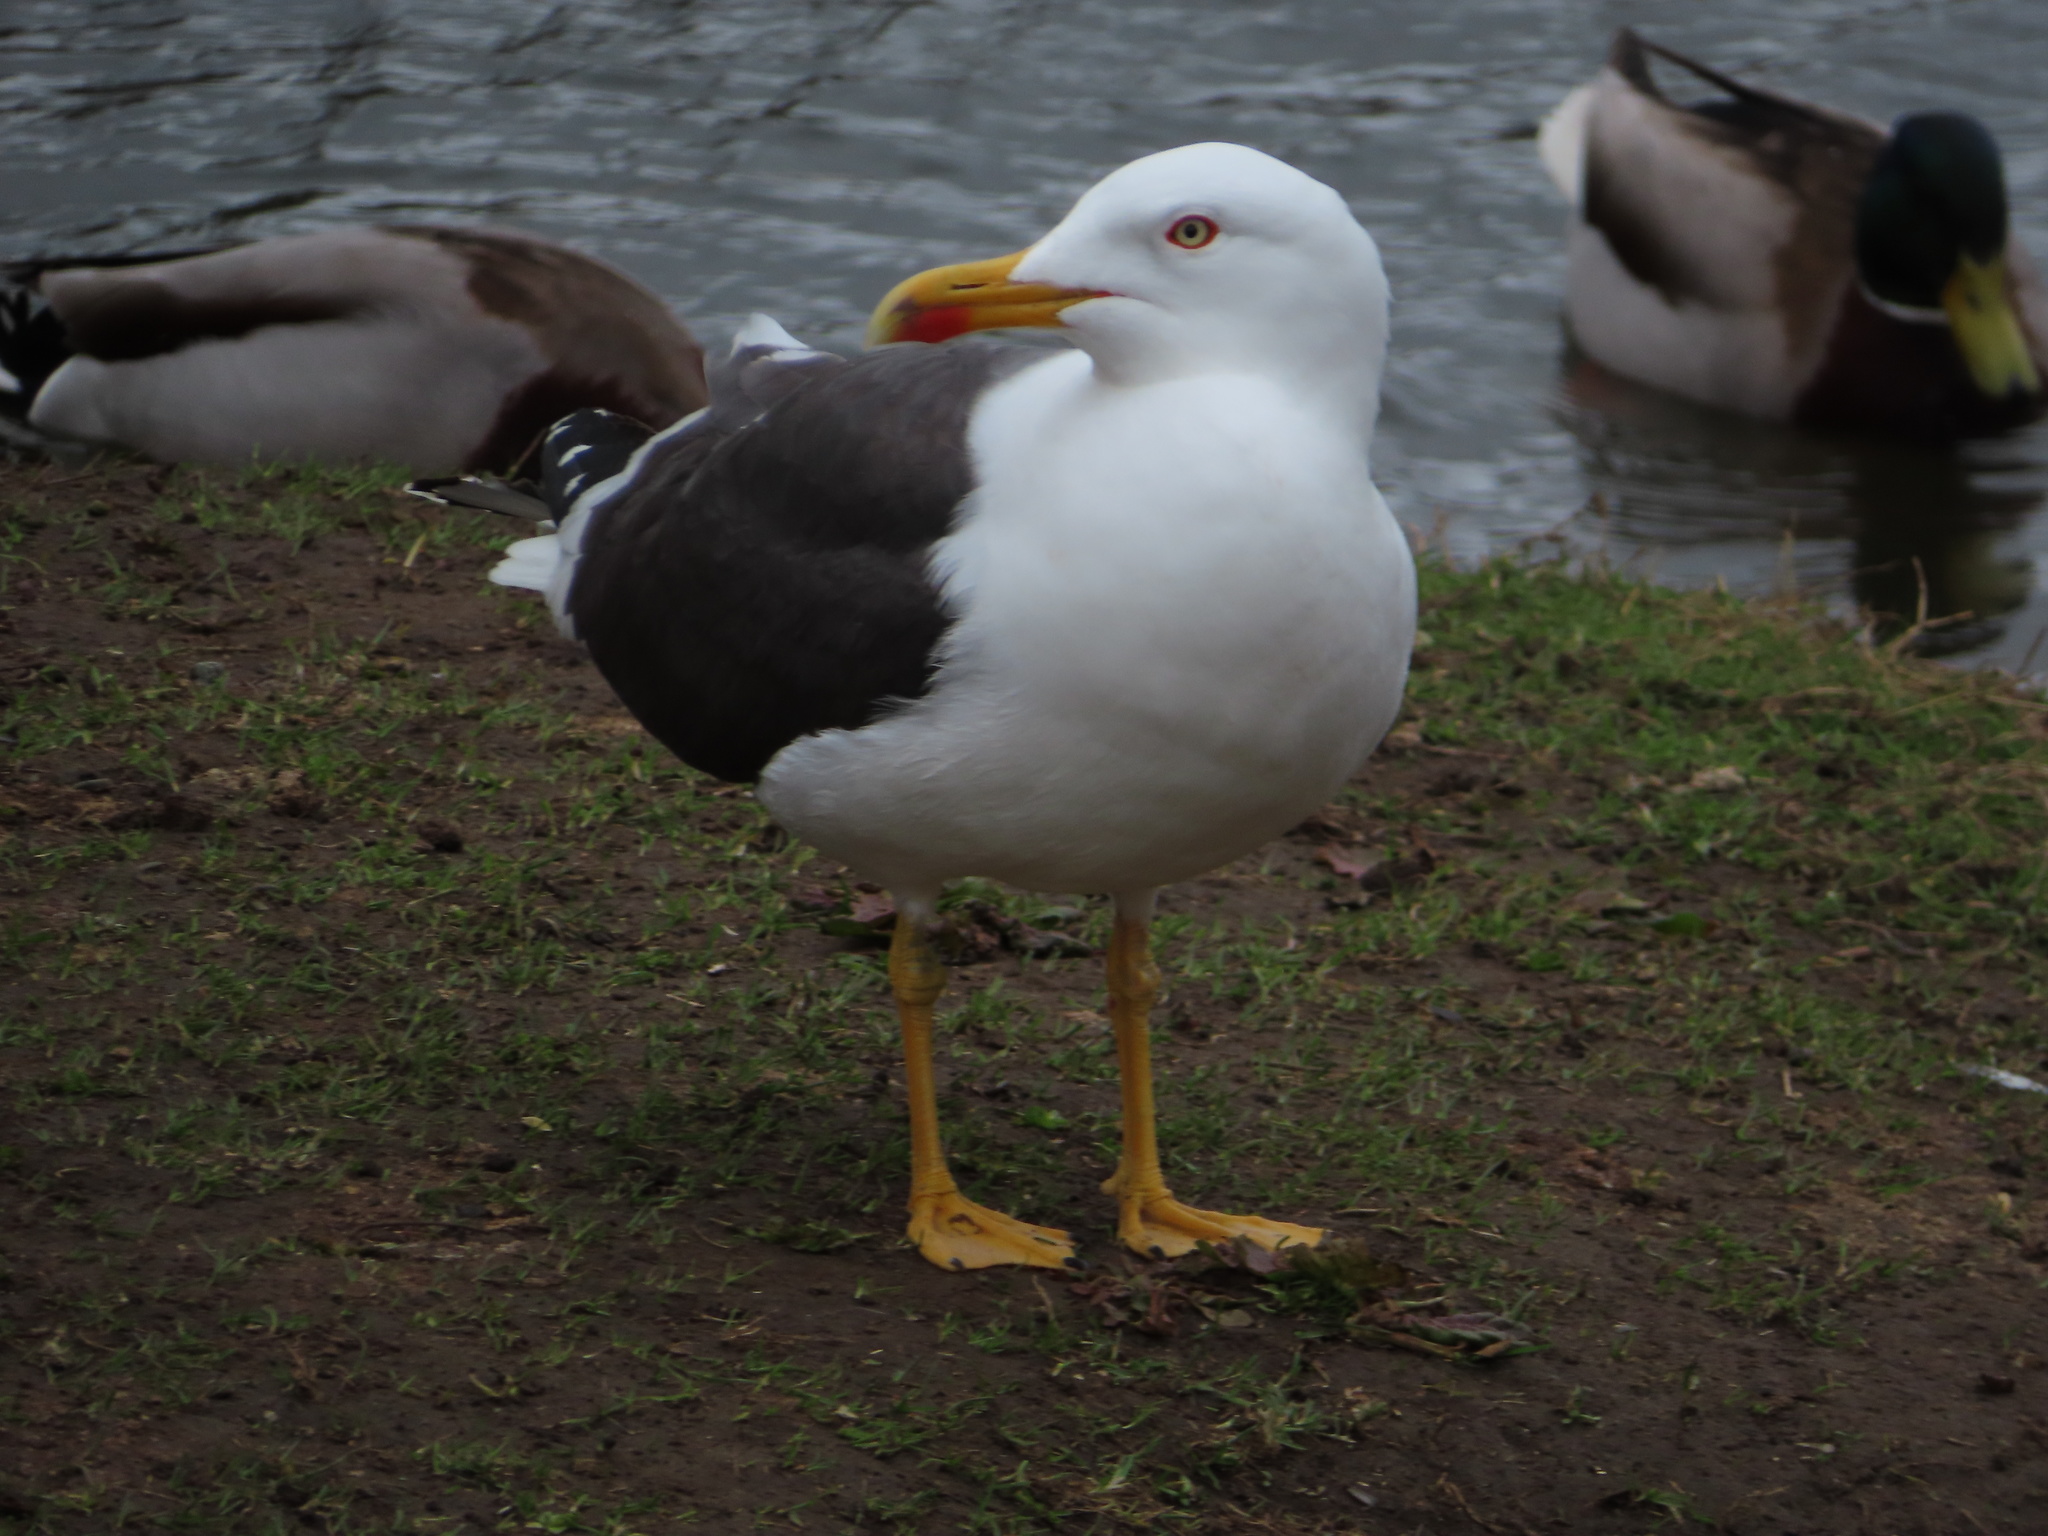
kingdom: Animalia
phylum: Chordata
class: Aves
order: Charadriiformes
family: Laridae
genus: Larus
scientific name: Larus fuscus
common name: Lesser black-backed gull
